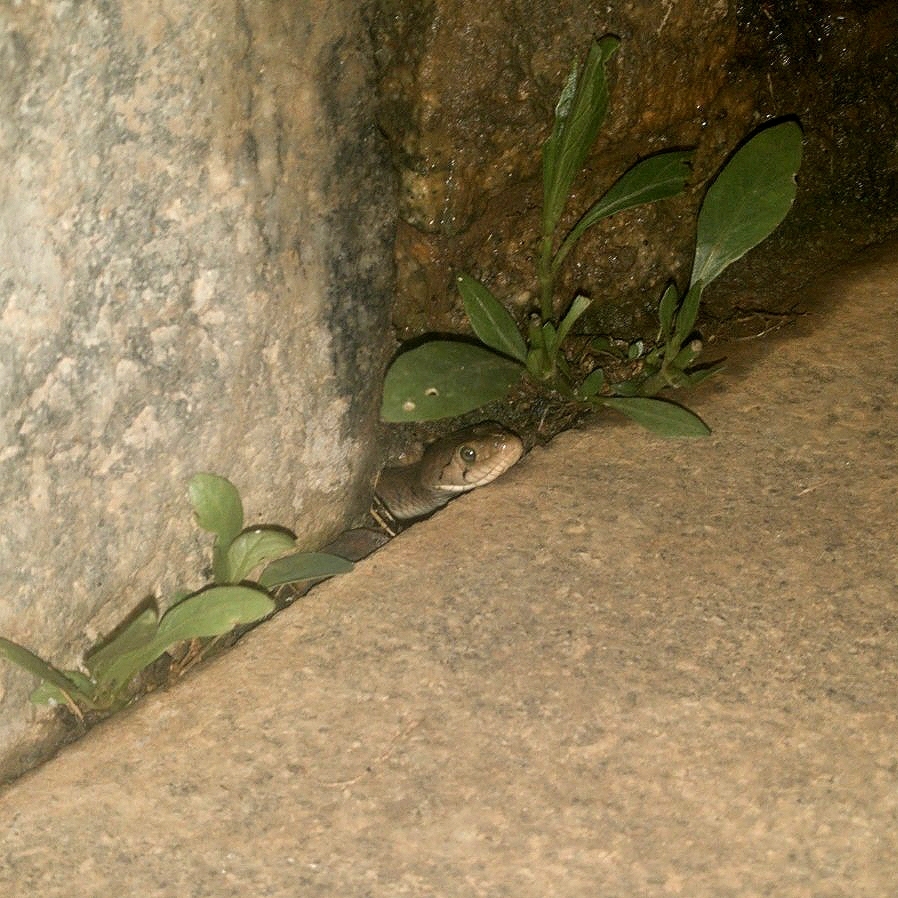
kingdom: Animalia
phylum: Chordata
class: Squamata
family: Colubridae
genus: Fowlea
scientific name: Fowlea piscator
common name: Asiatic water snake
